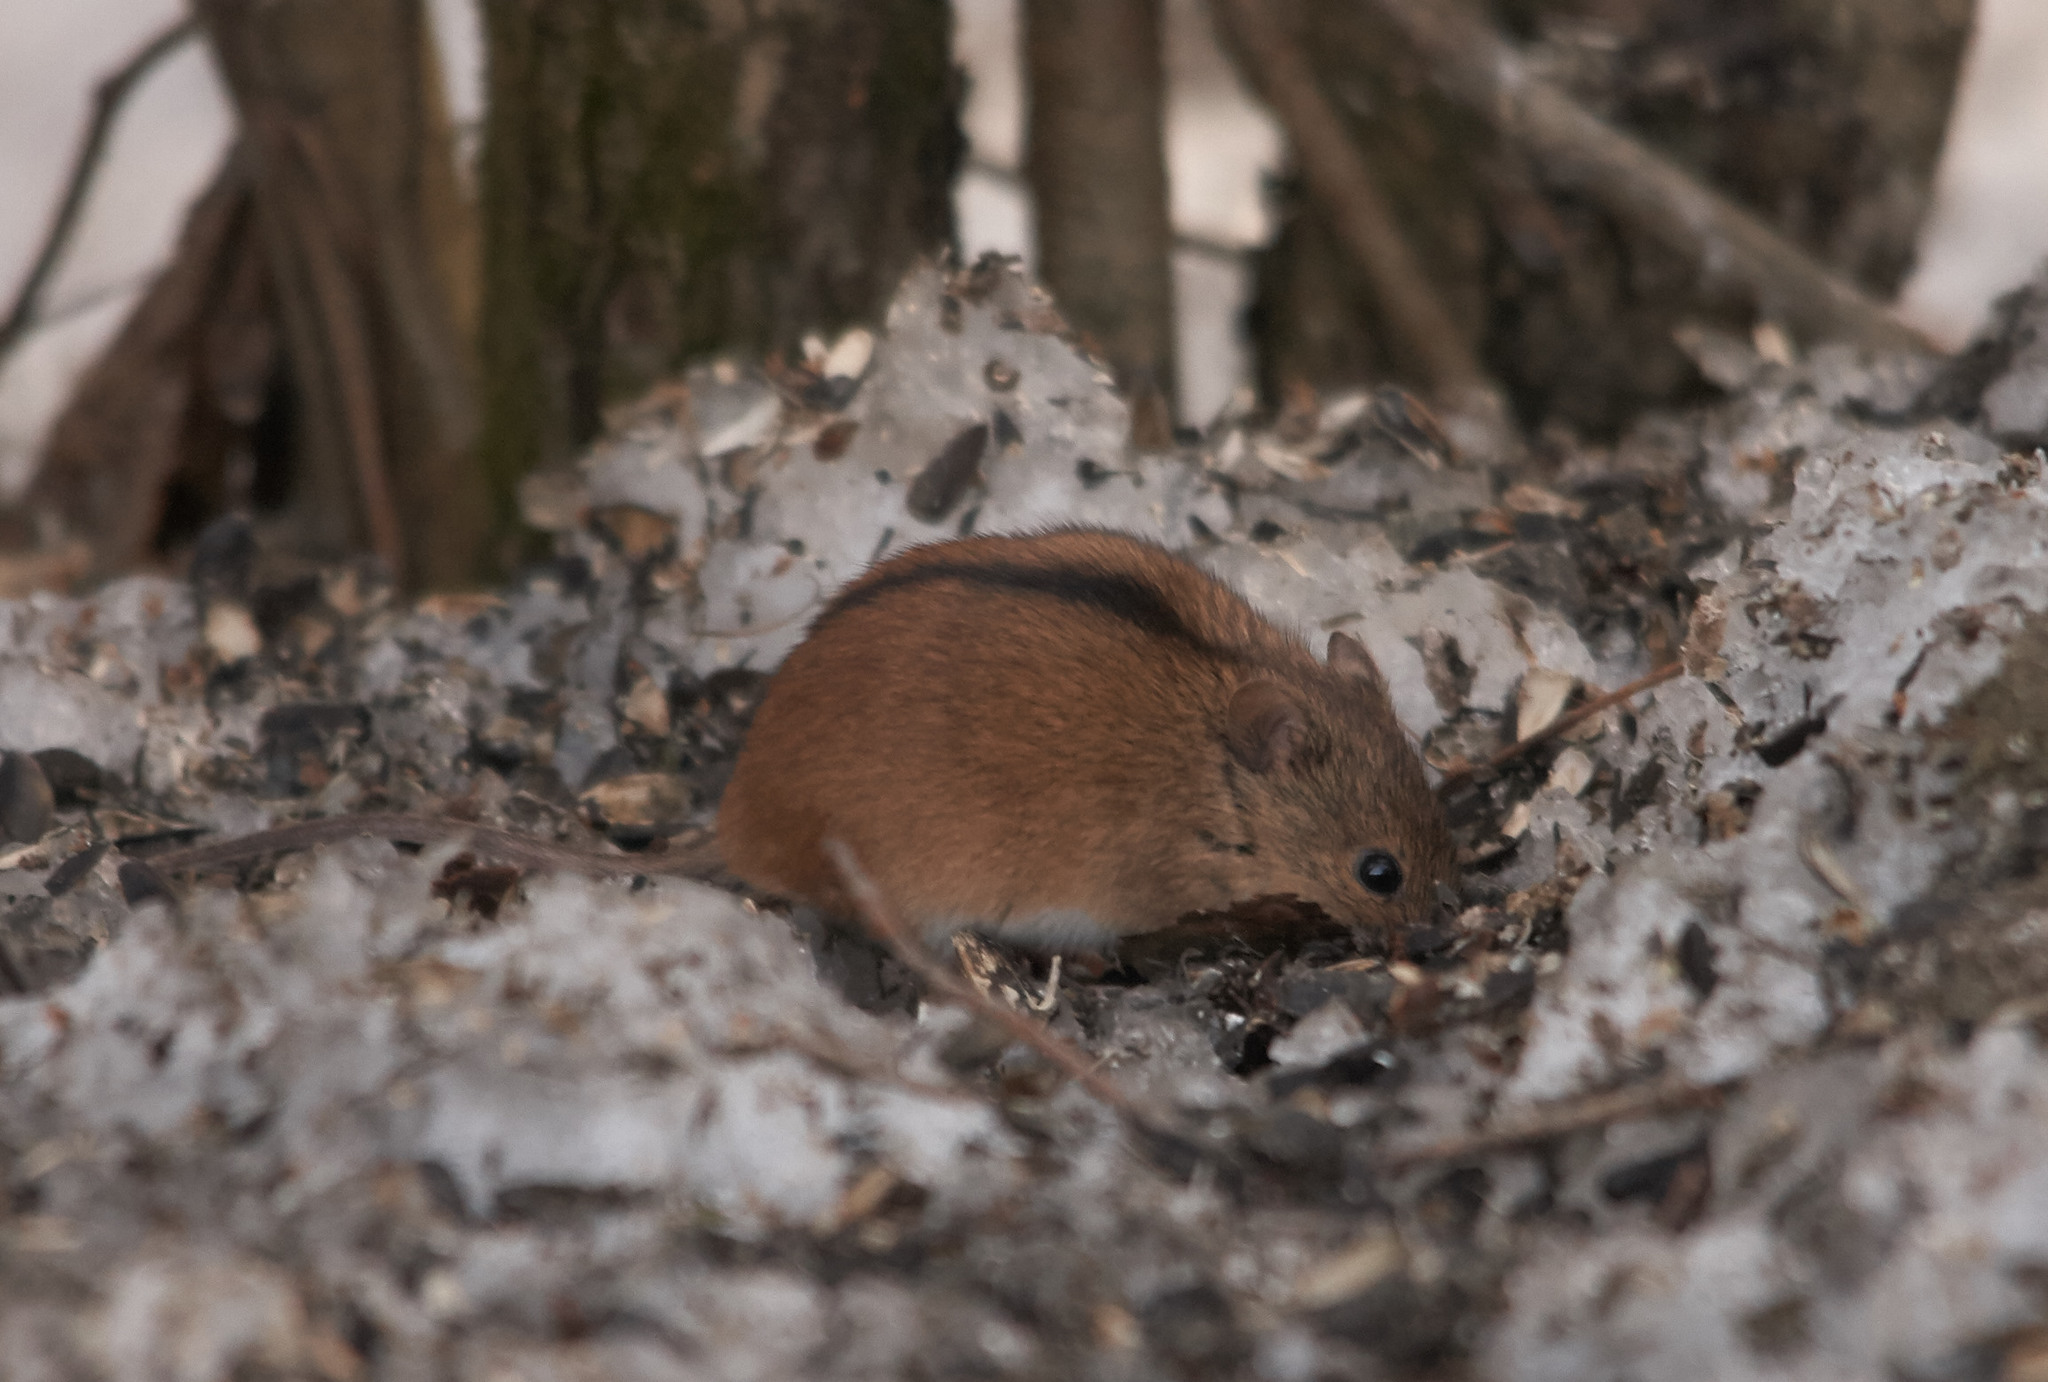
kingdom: Animalia
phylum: Chordata
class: Mammalia
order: Rodentia
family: Muridae
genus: Apodemus
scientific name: Apodemus agrarius
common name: Striped field mouse
